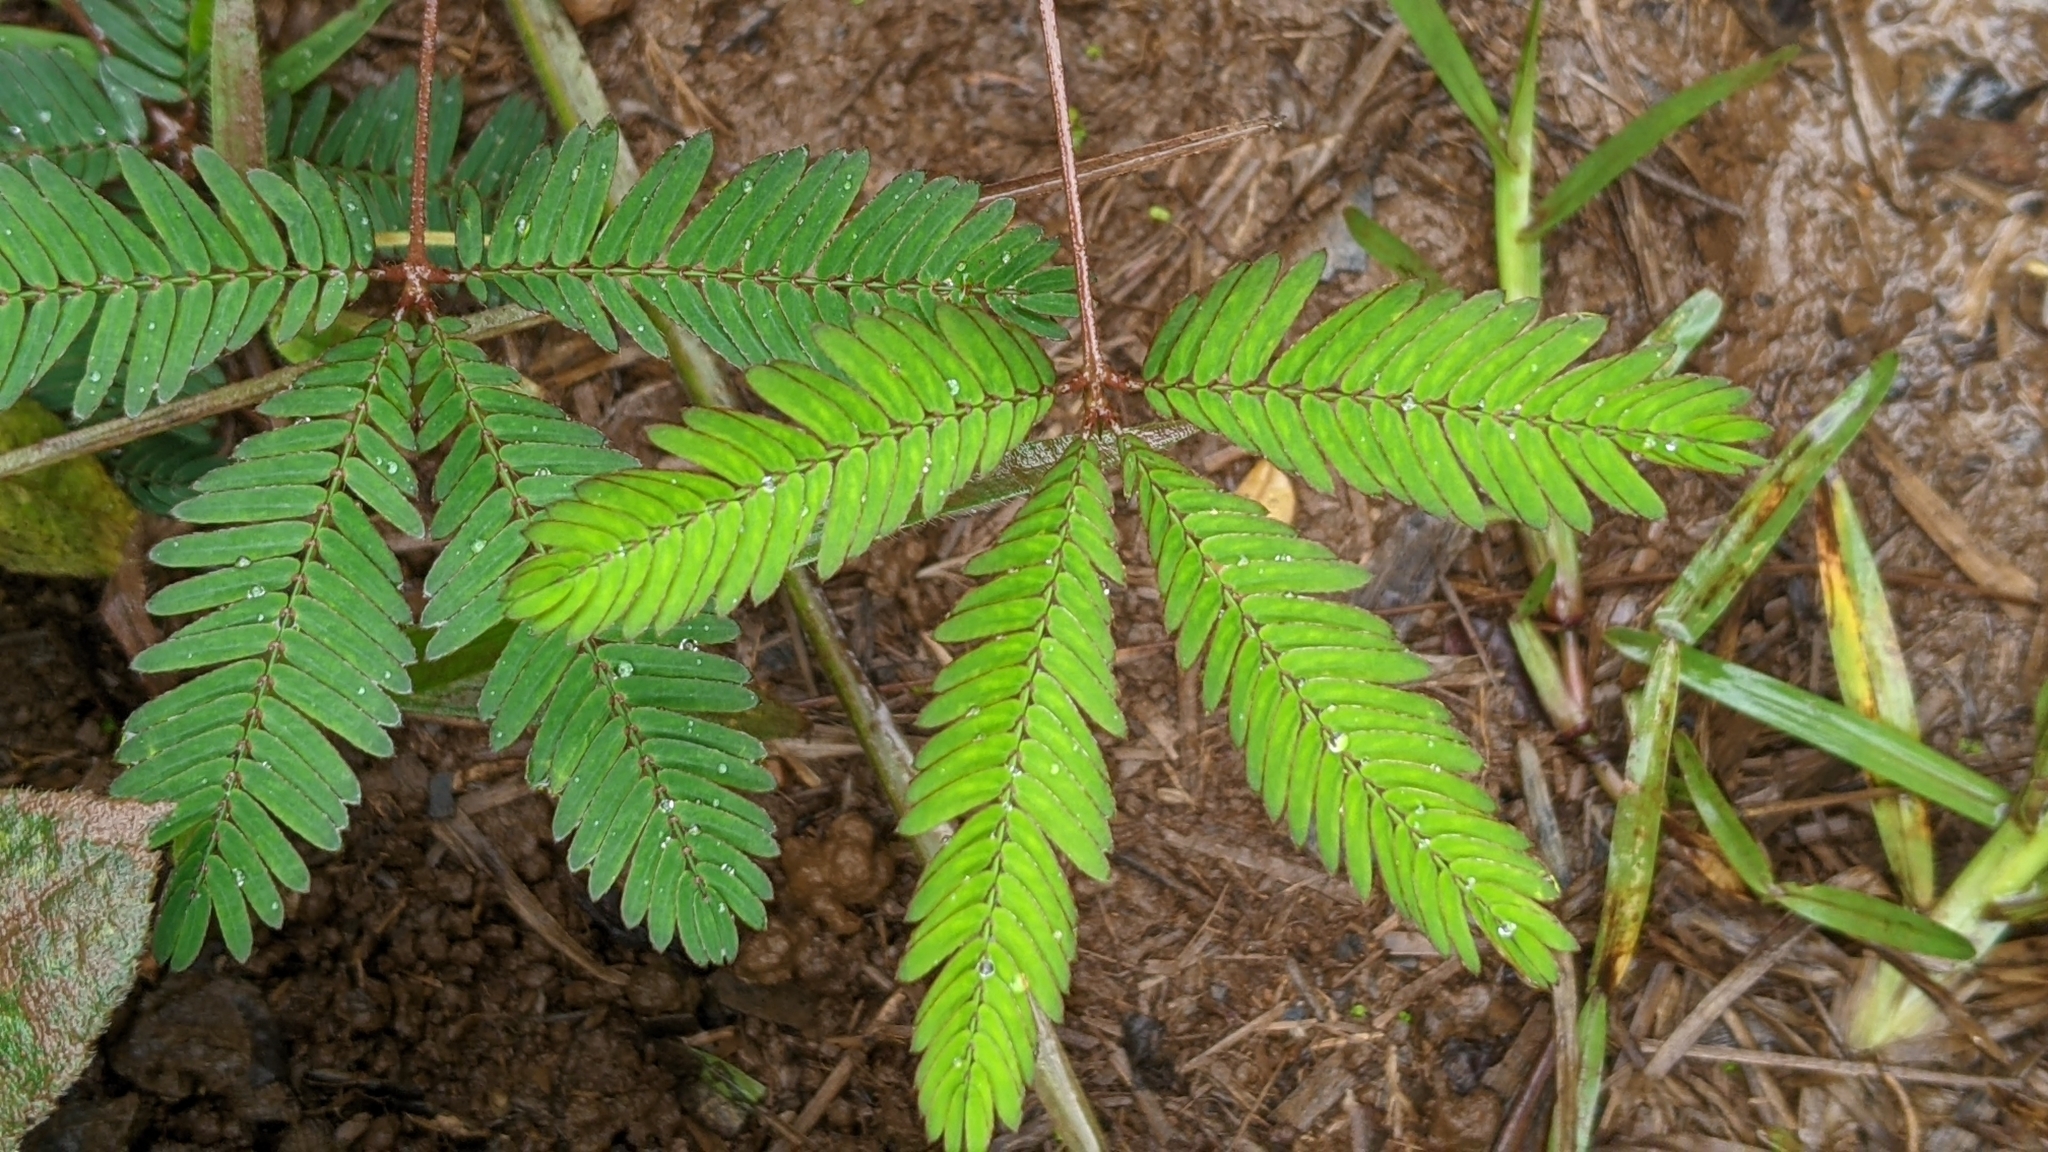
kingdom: Plantae
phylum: Tracheophyta
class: Magnoliopsida
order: Fabales
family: Fabaceae
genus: Mimosa
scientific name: Mimosa pudica
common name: Sensitive plant
